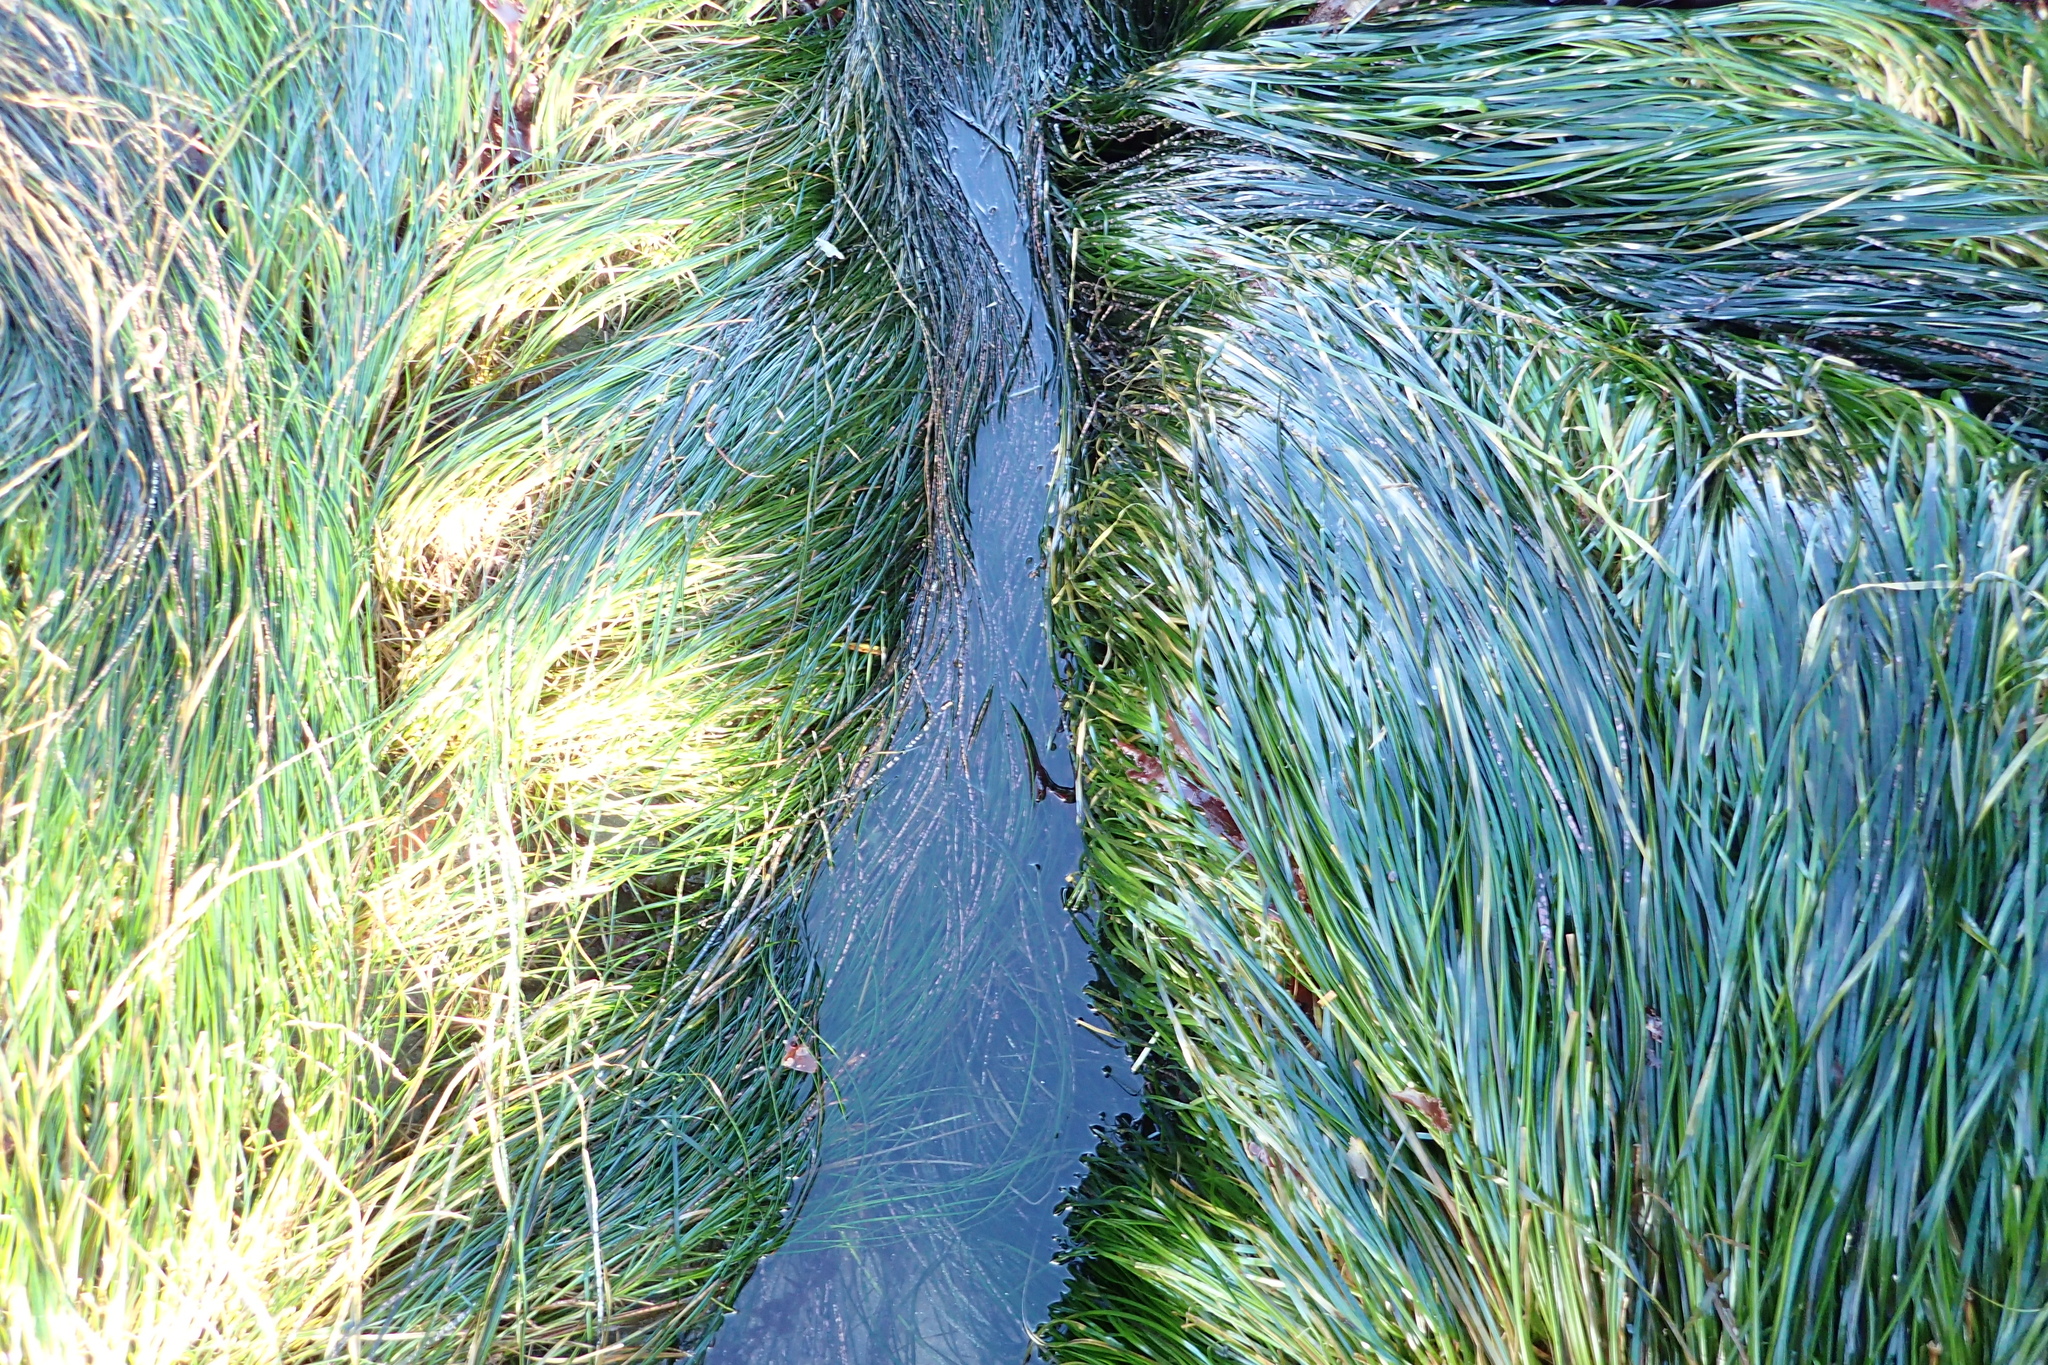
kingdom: Plantae
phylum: Tracheophyta
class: Liliopsida
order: Alismatales
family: Zosteraceae
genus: Phyllospadix
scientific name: Phyllospadix torreyi
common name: Surfgrass
